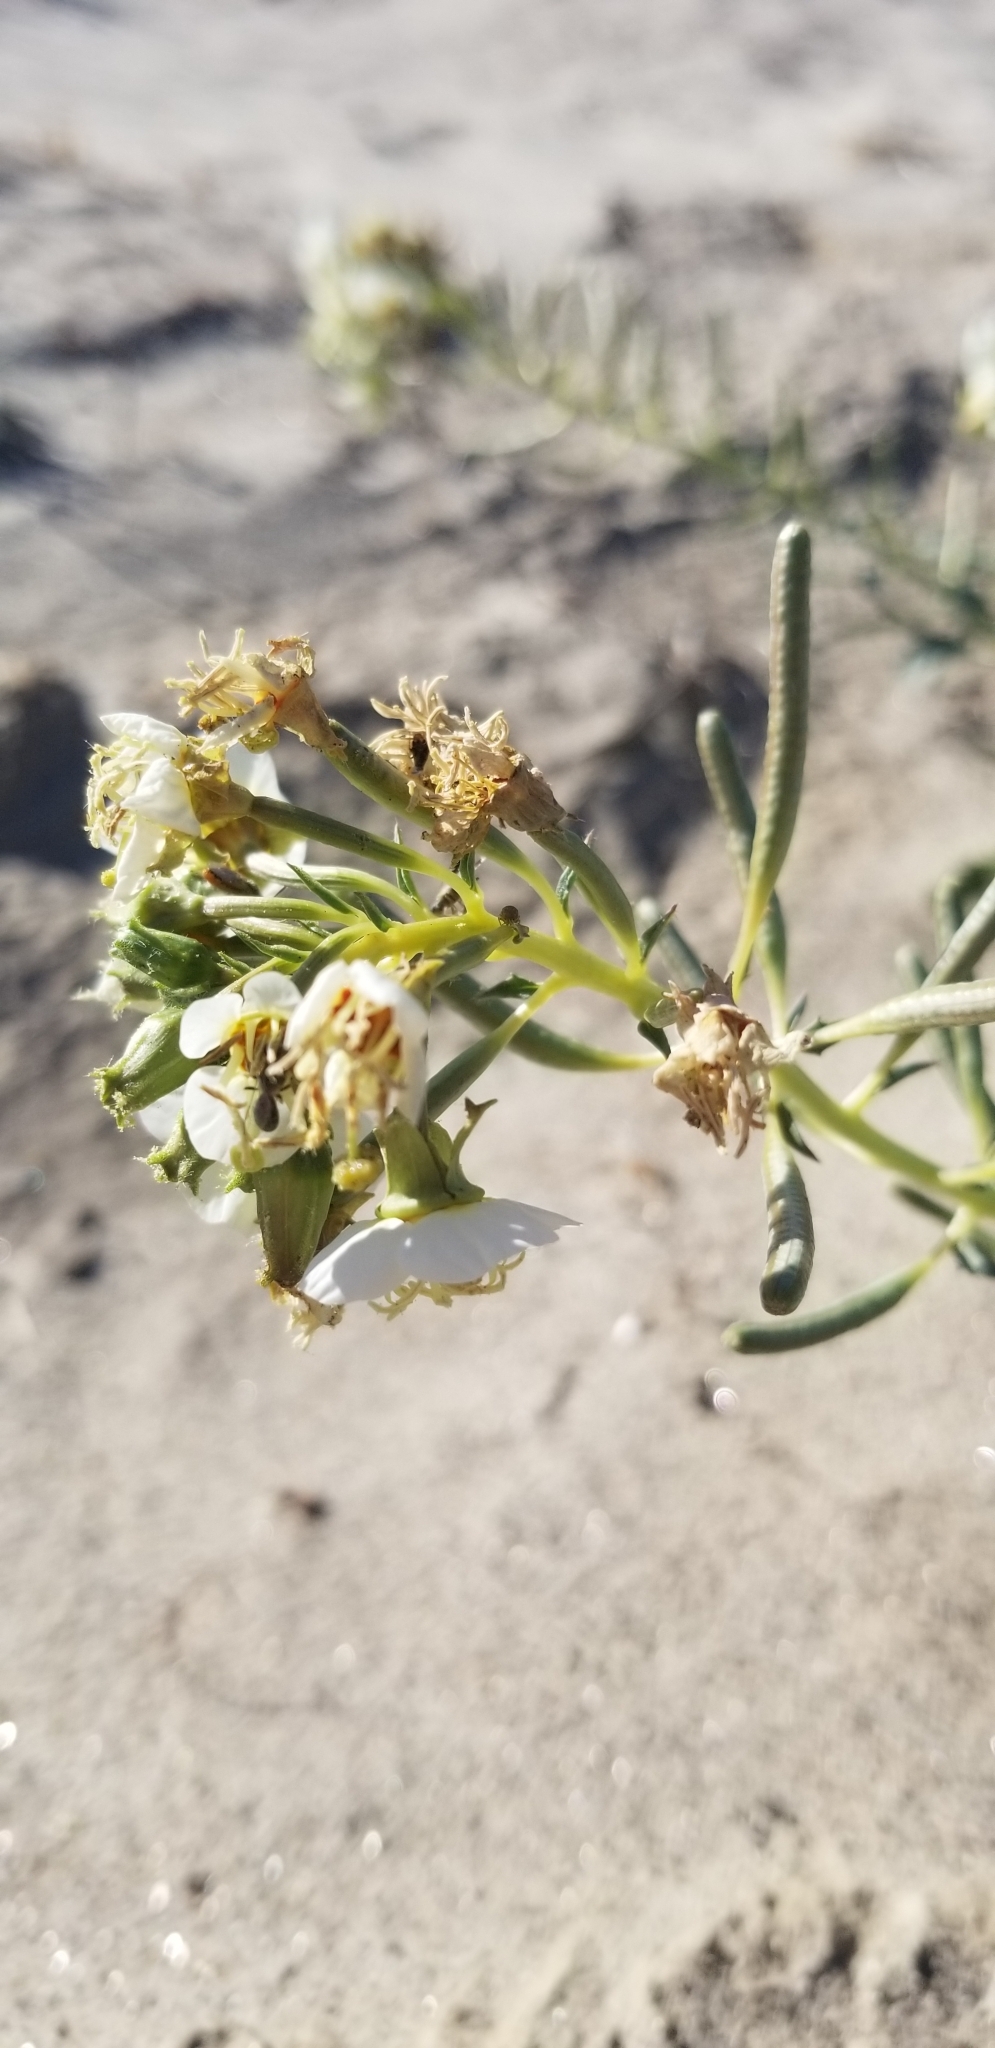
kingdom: Plantae
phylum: Tracheophyta
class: Magnoliopsida
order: Myrtales
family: Onagraceae
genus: Chylismia
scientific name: Chylismia claviformis
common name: Browneyes
